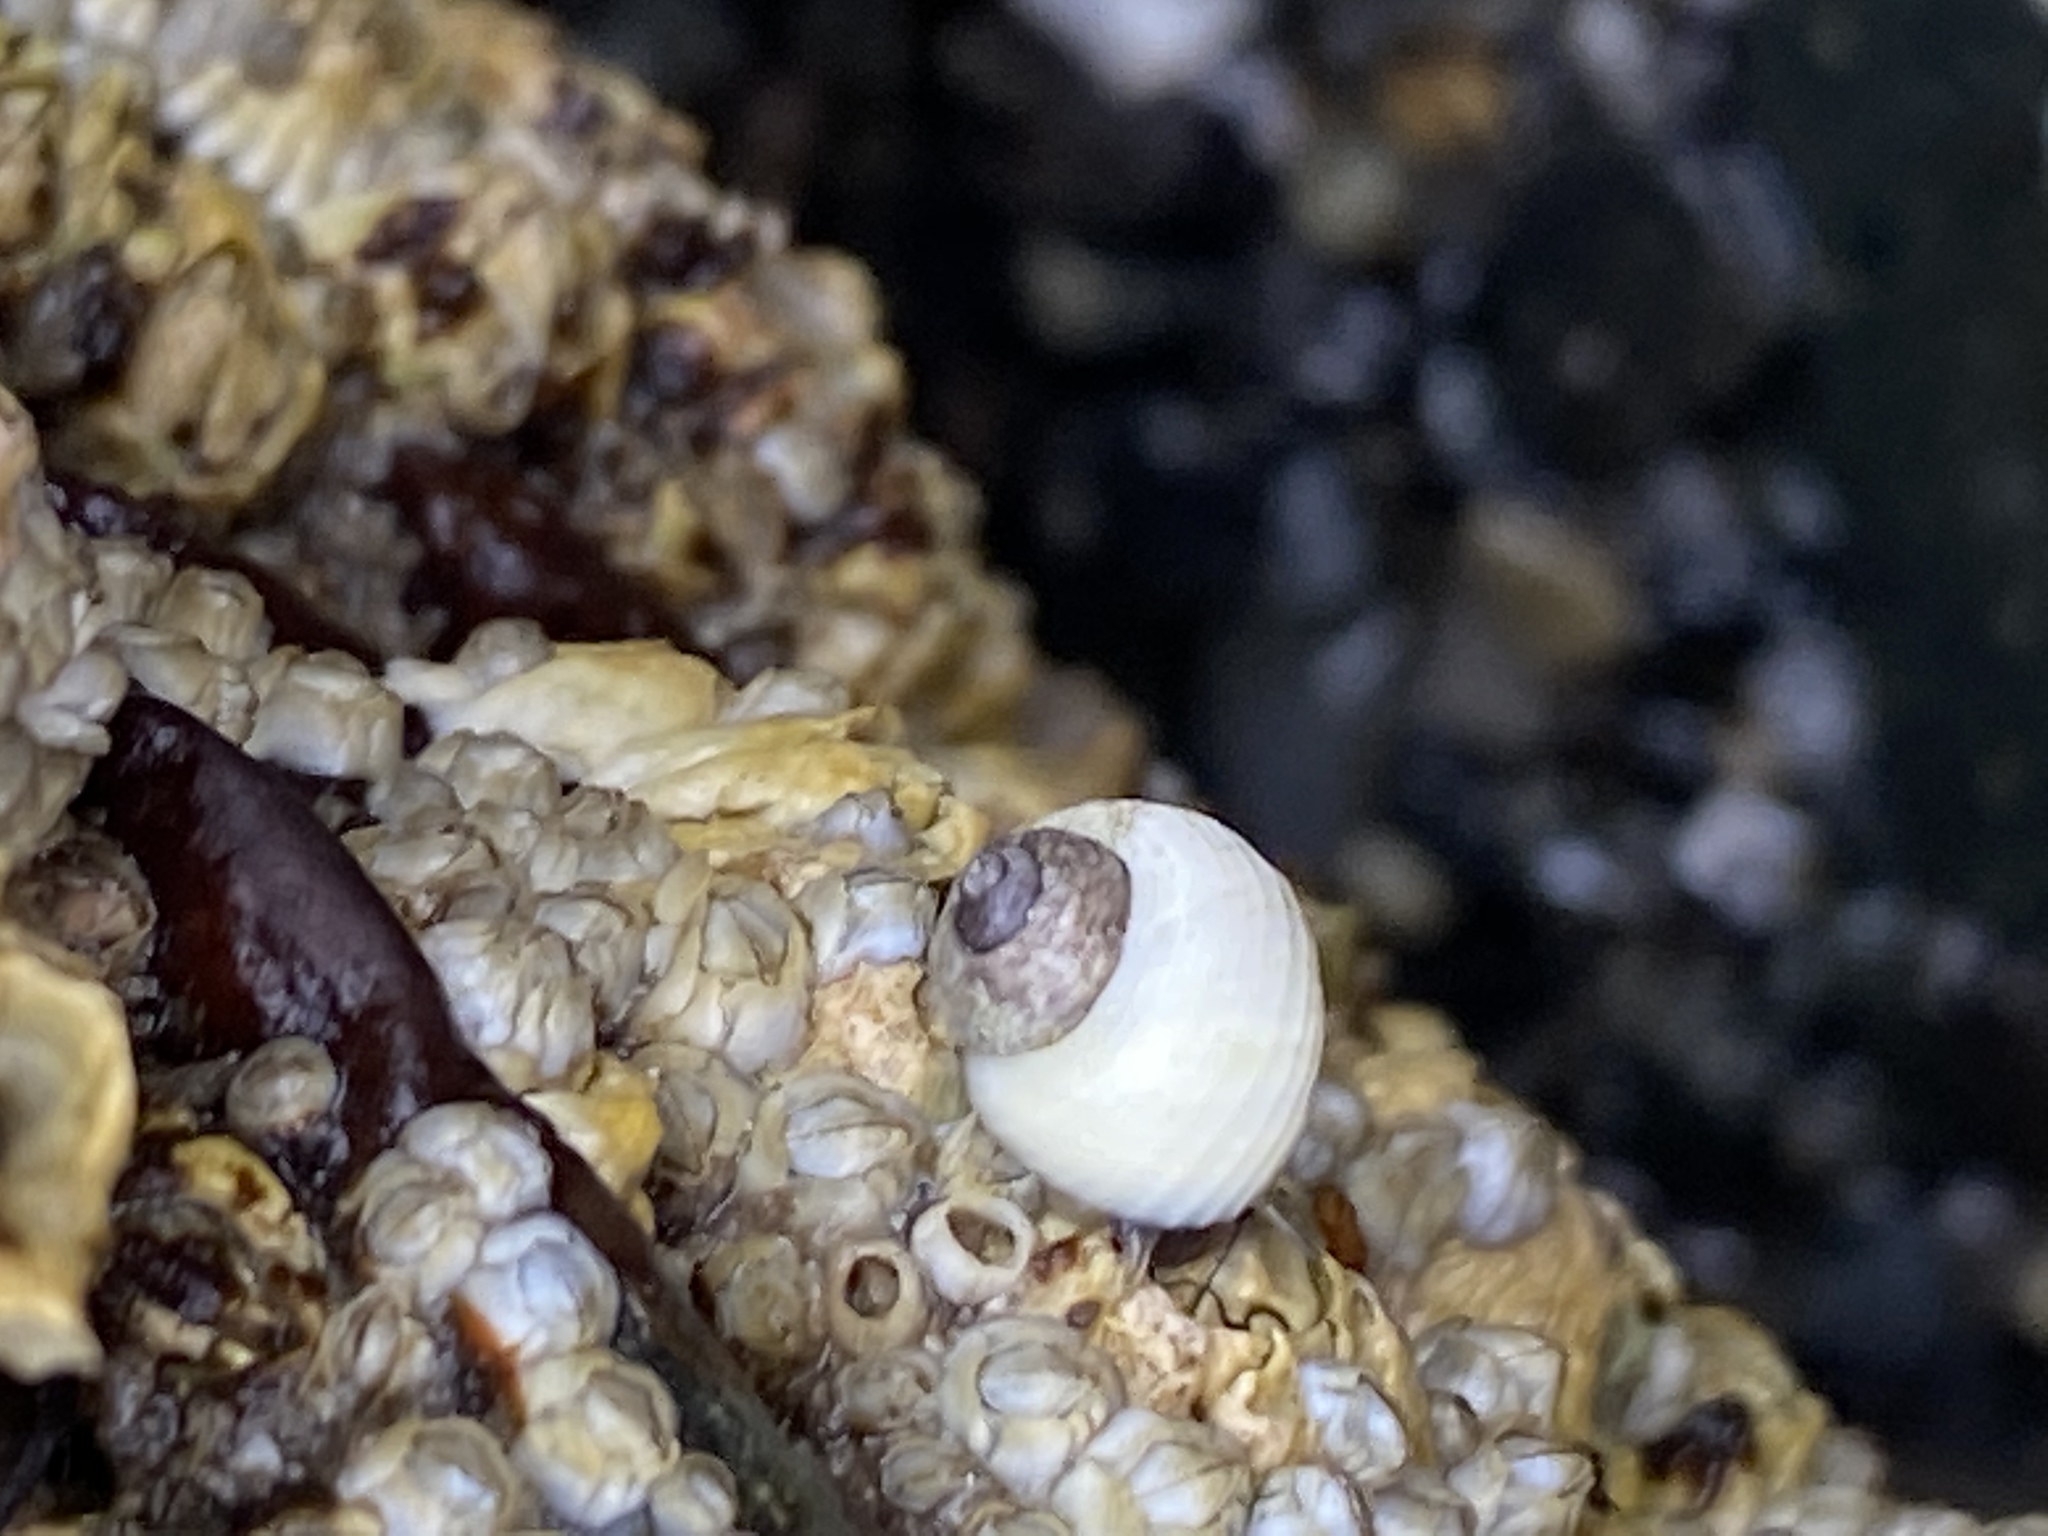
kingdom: Animalia
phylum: Mollusca
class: Gastropoda
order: Littorinimorpha
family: Littorinidae
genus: Littorina
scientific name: Littorina saxatilis
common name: Black-lined periwinkle
